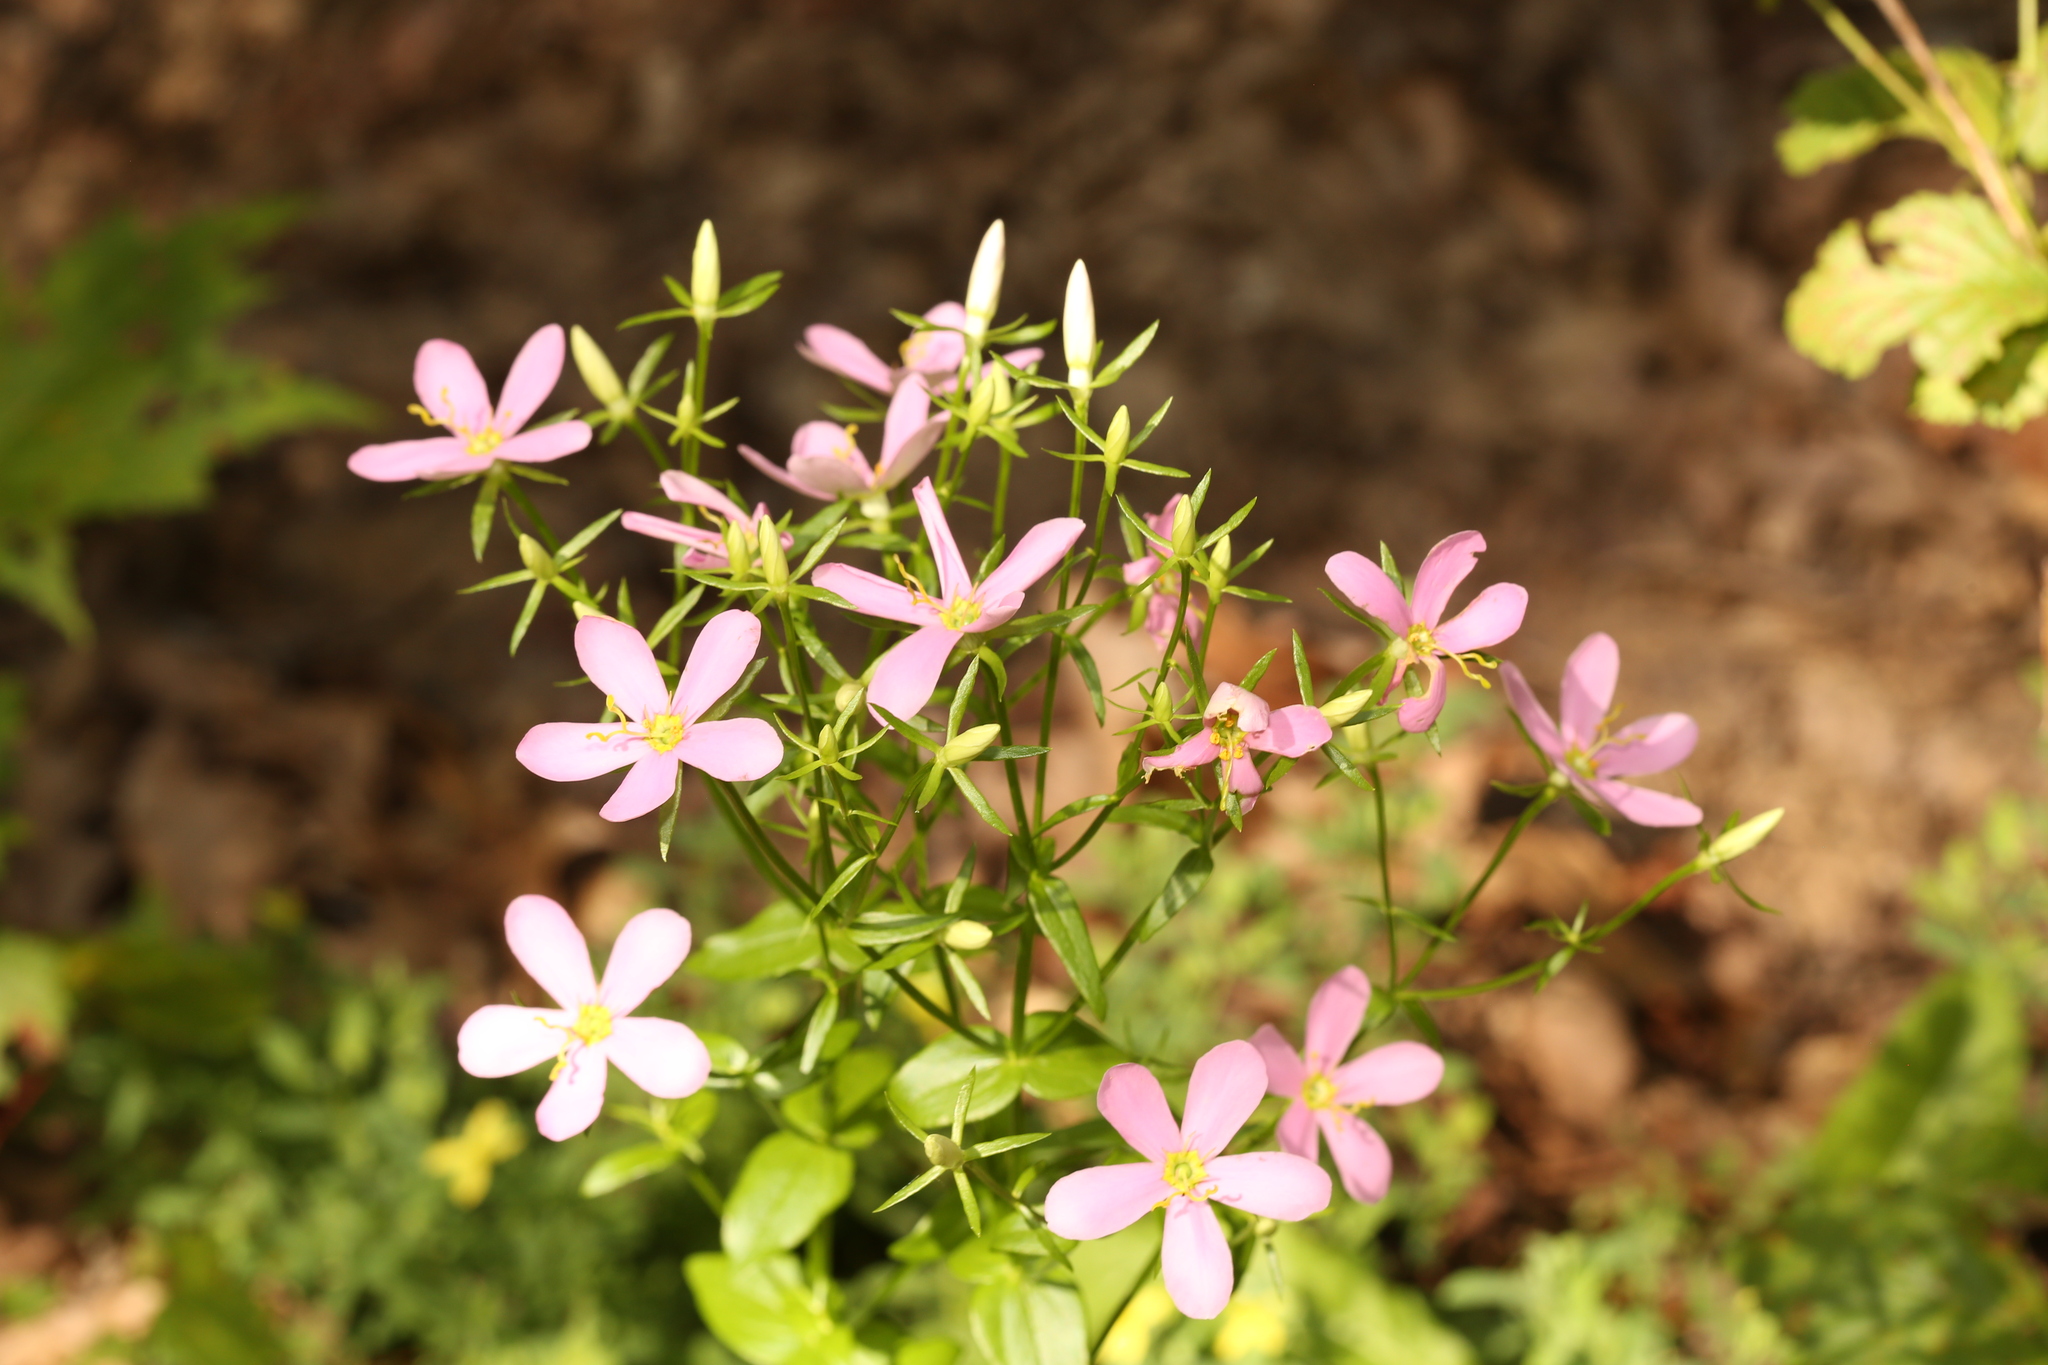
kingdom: Plantae
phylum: Tracheophyta
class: Magnoliopsida
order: Gentianales
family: Gentianaceae
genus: Sabatia
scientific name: Sabatia angularis
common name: Rose-pink
